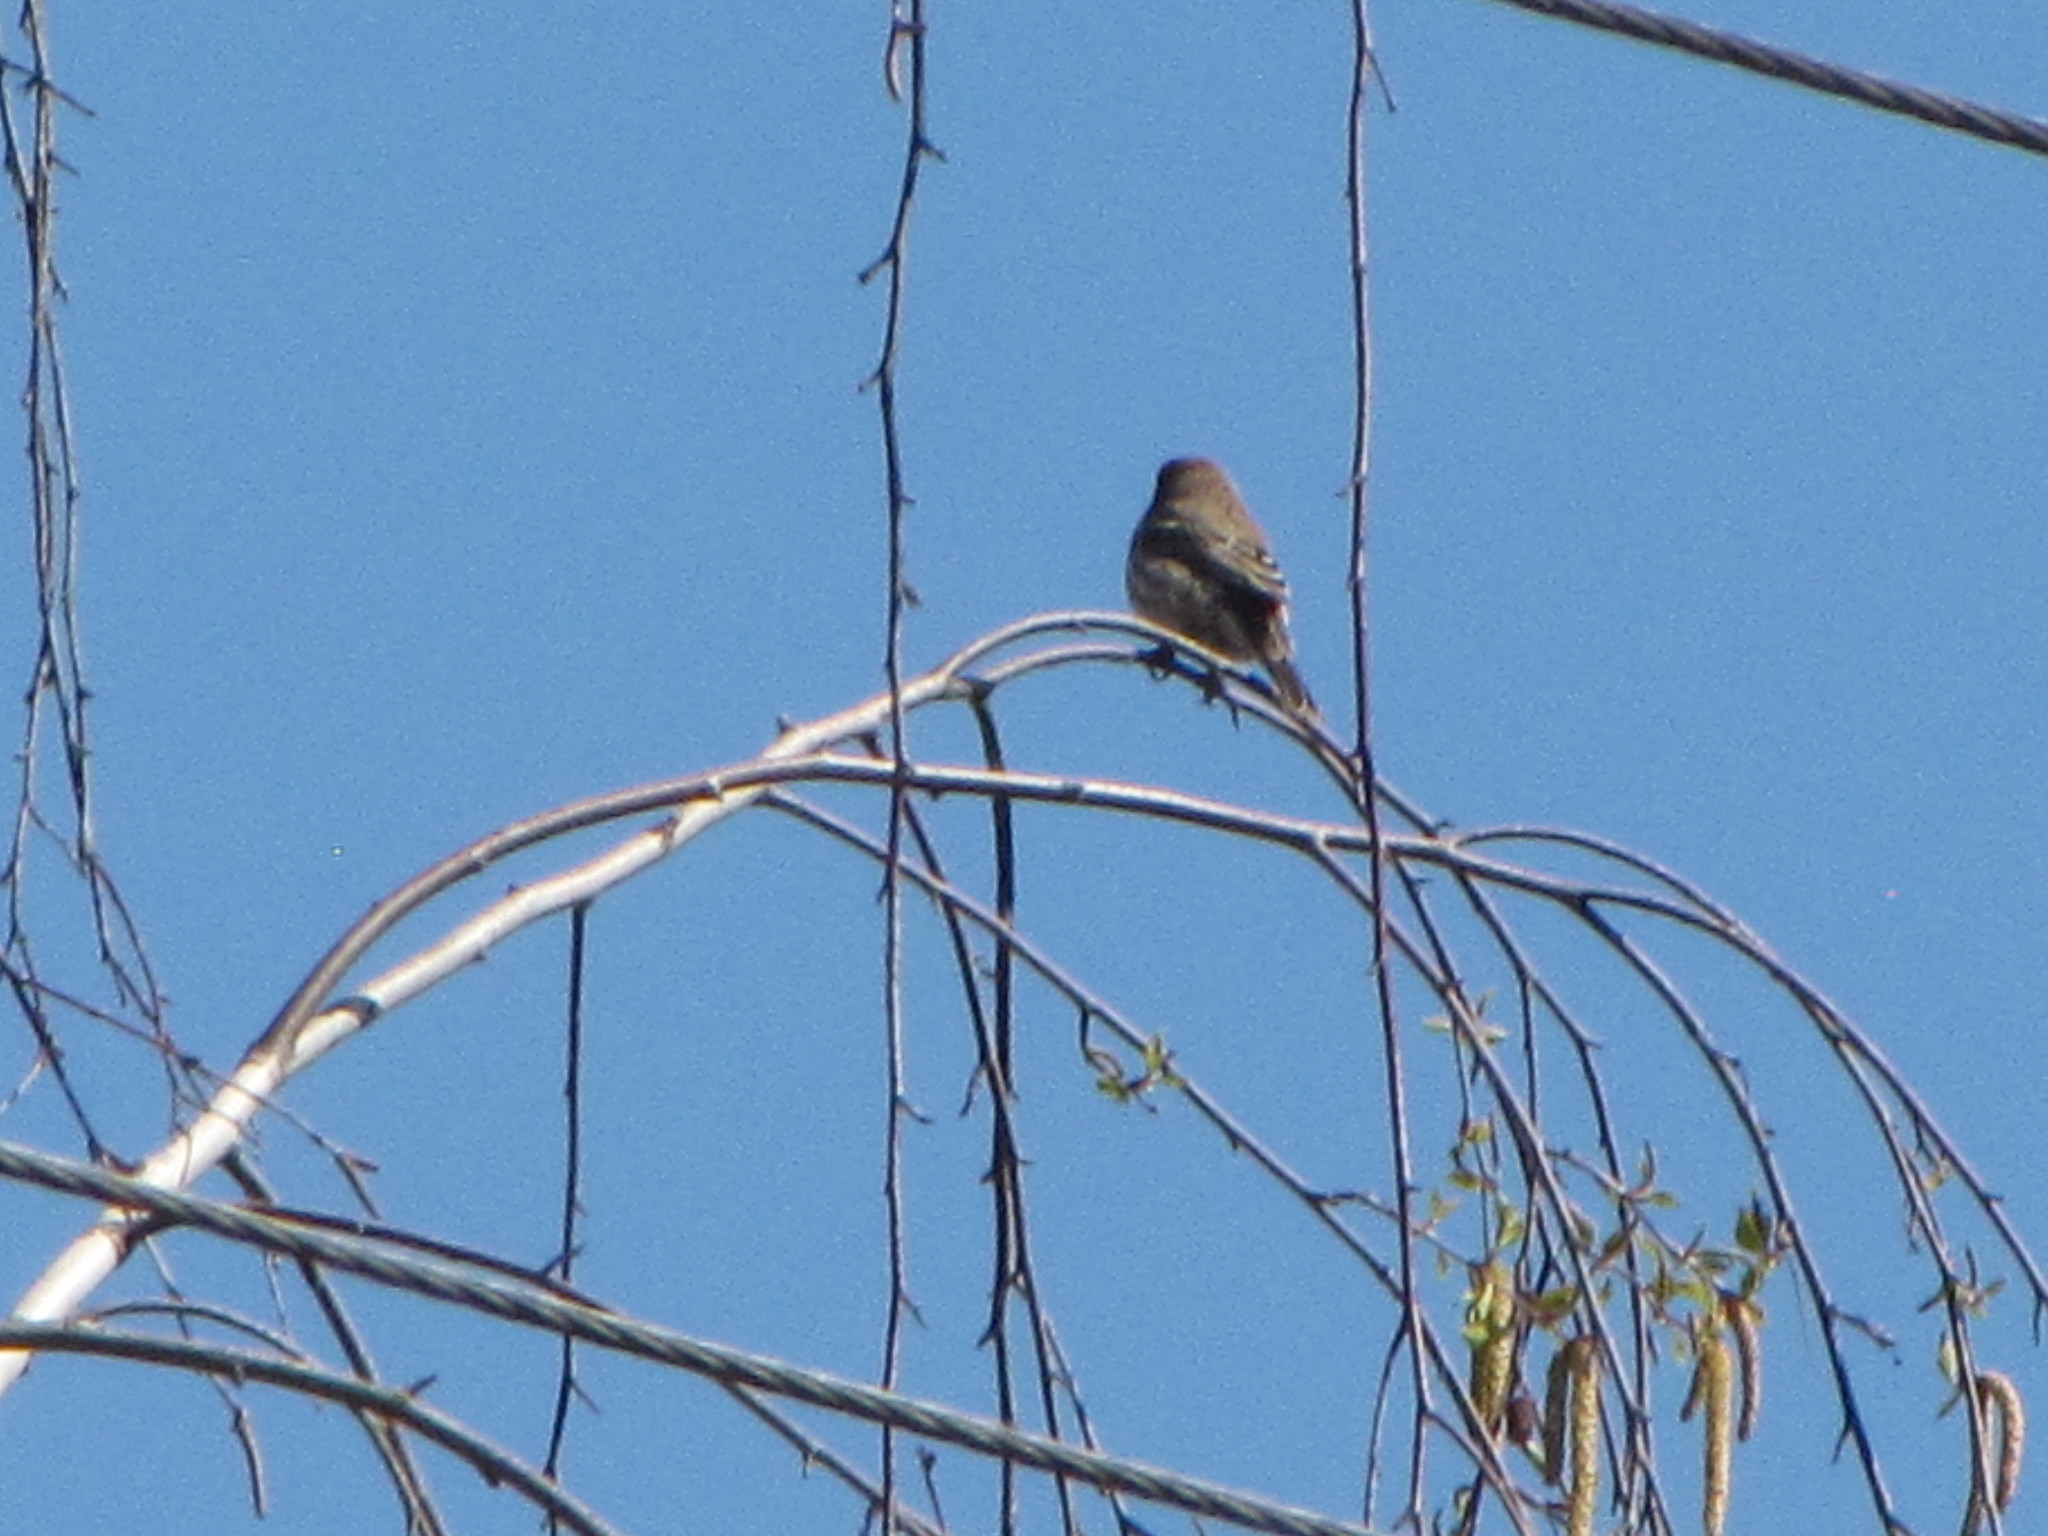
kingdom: Animalia
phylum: Chordata
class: Aves
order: Passeriformes
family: Passerellidae
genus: Junco
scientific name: Junco hyemalis
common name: Dark-eyed junco
